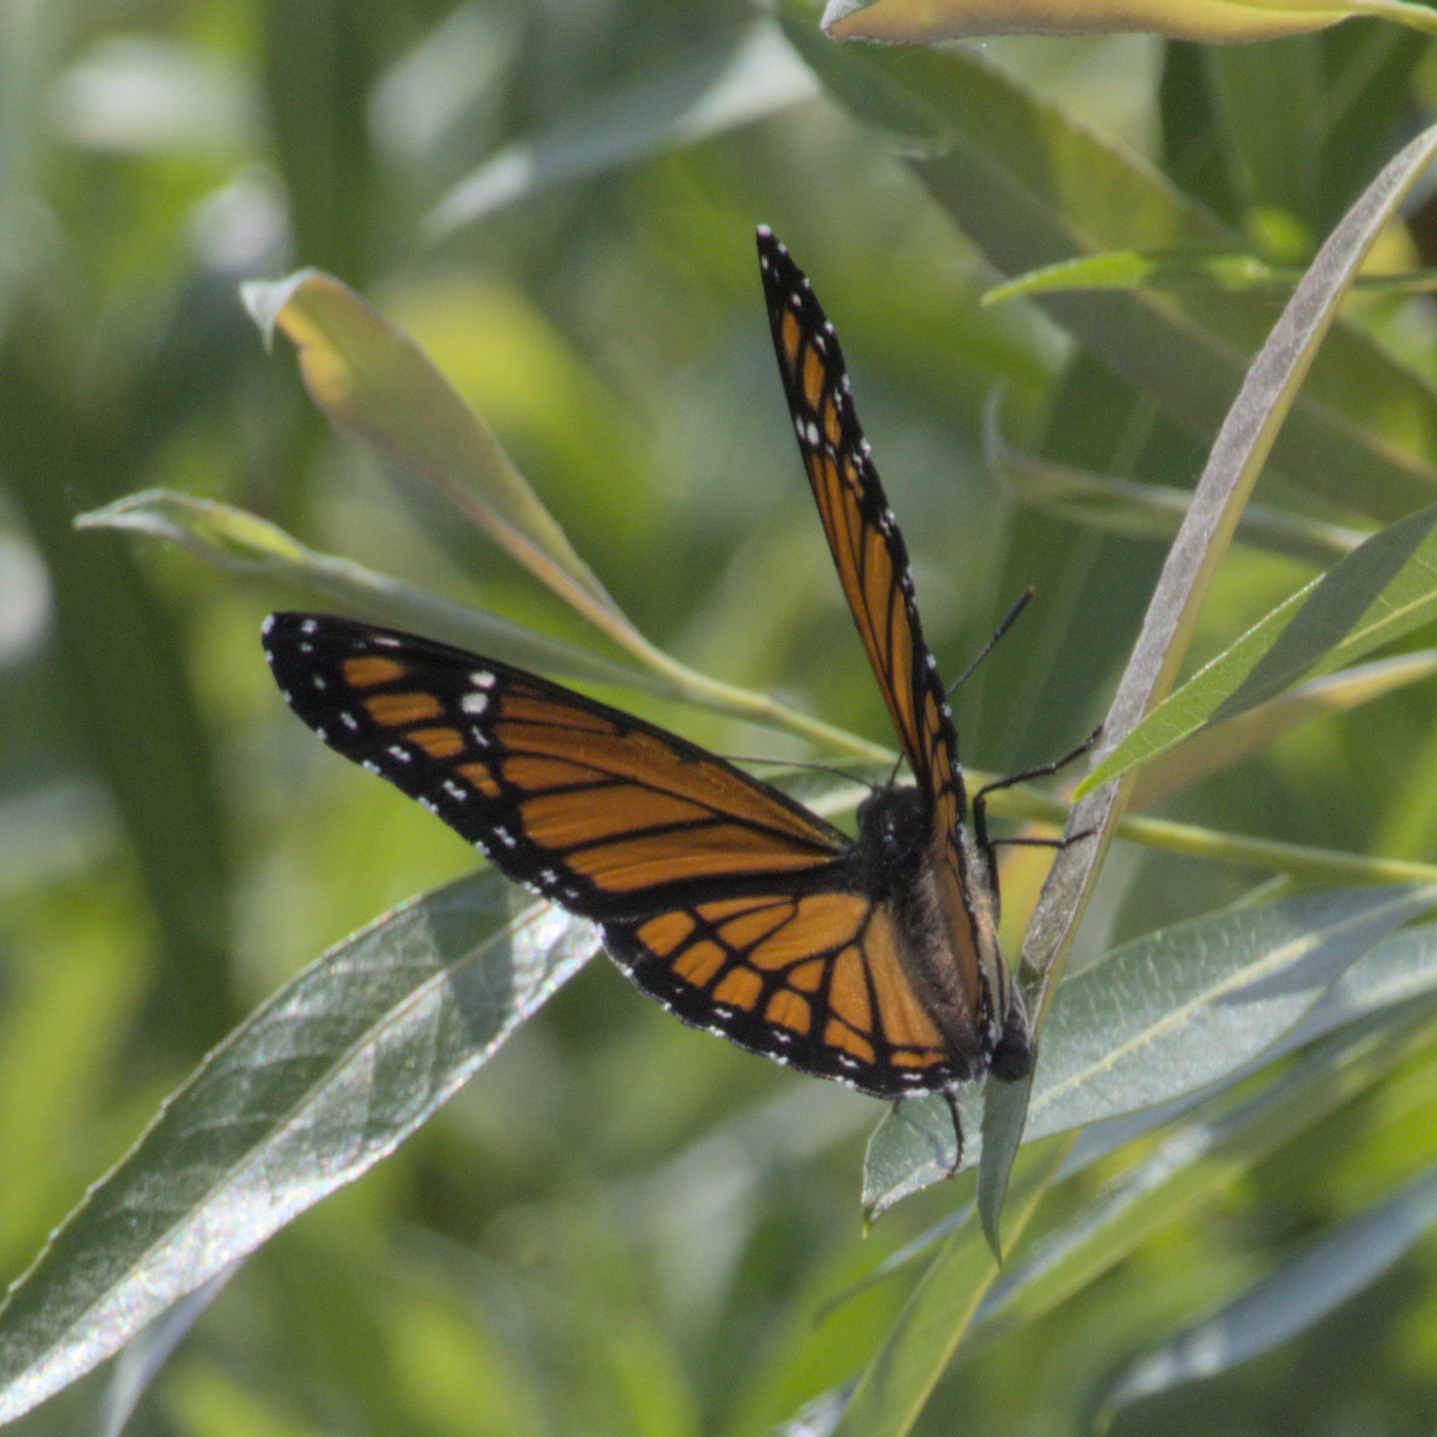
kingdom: Animalia
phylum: Arthropoda
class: Insecta
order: Lepidoptera
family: Nymphalidae
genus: Limenitis
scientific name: Limenitis archippus
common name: Viceroy
